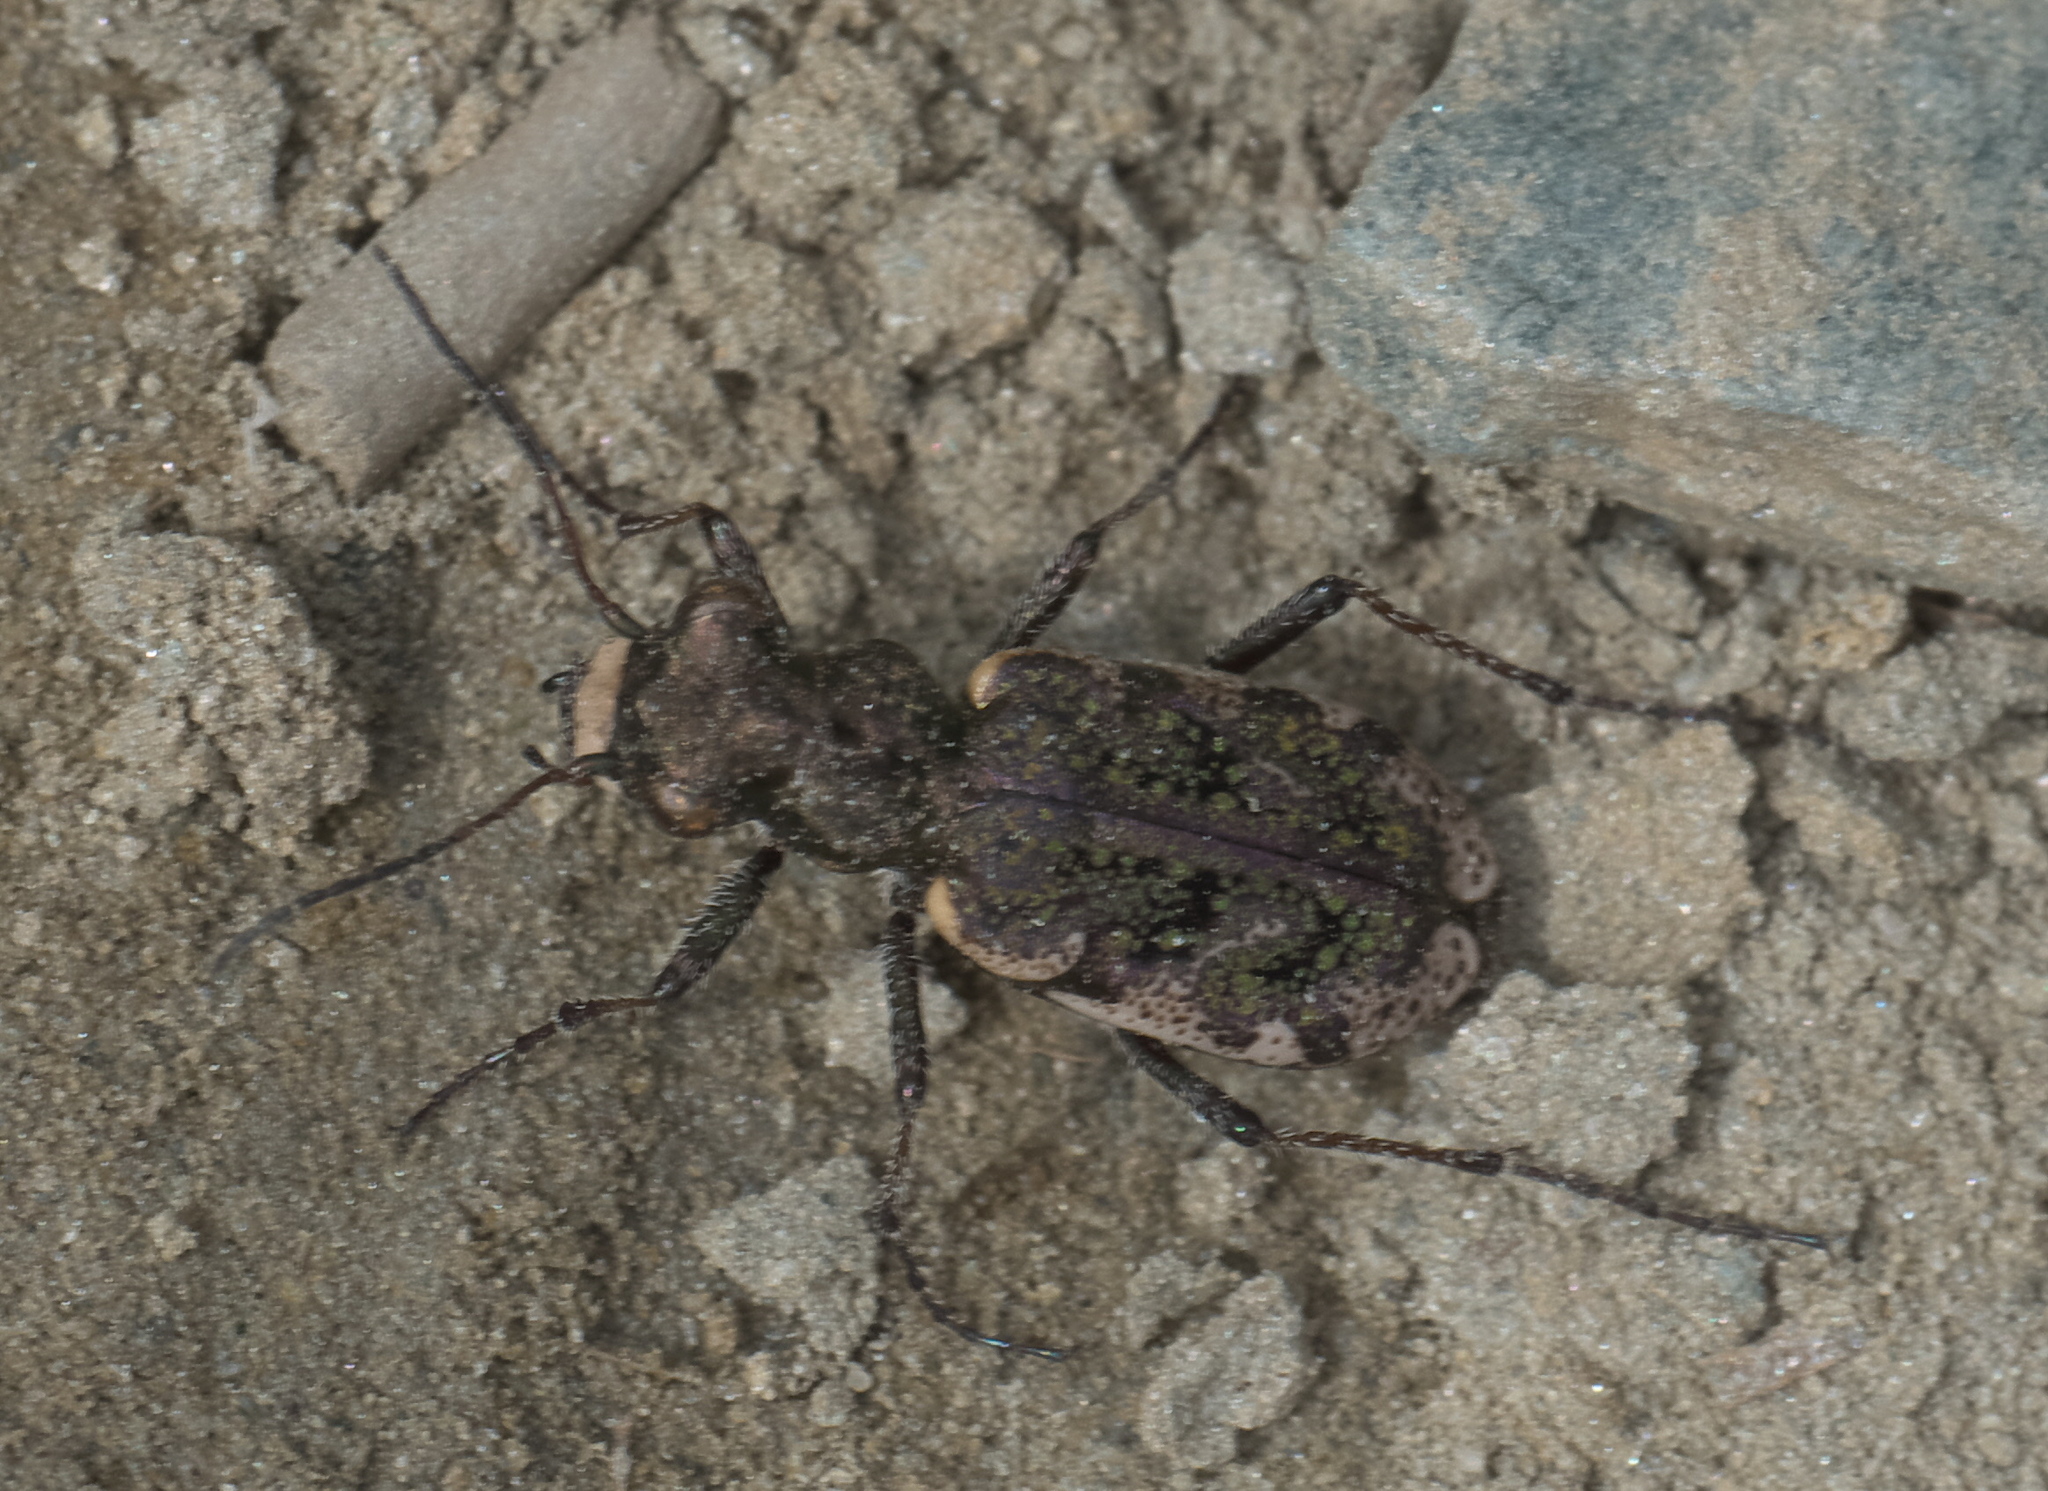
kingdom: Animalia
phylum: Arthropoda
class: Insecta
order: Coleoptera
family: Carabidae
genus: Neocicindela
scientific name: Neocicindela garnerae
